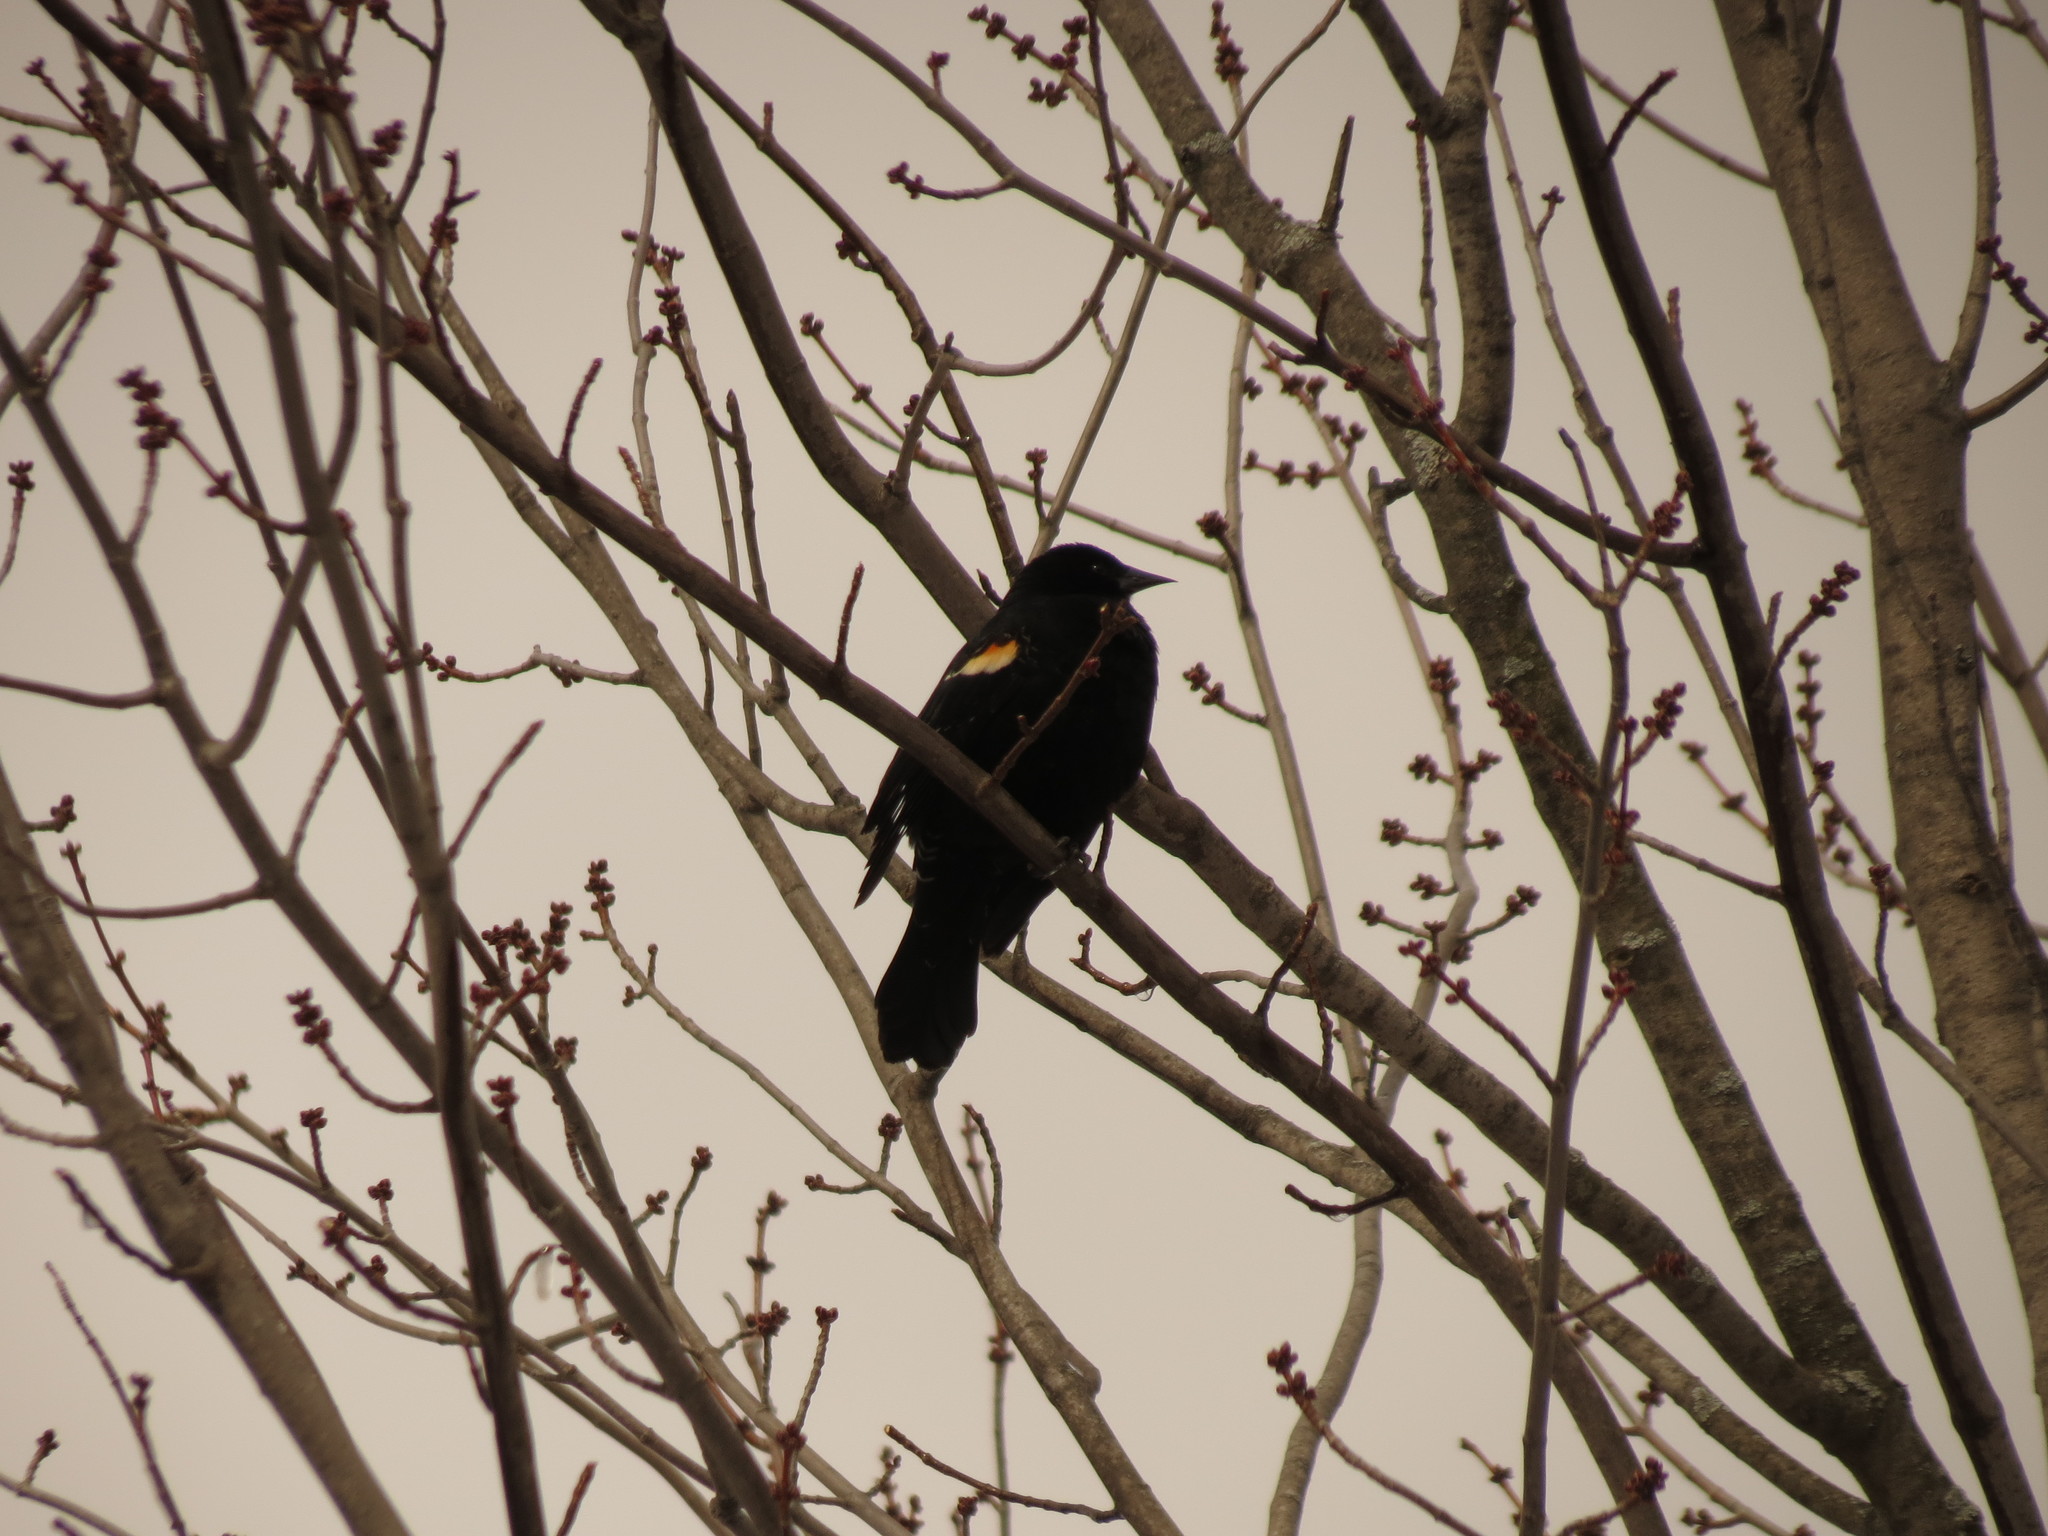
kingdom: Animalia
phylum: Chordata
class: Aves
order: Passeriformes
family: Icteridae
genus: Agelaius
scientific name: Agelaius phoeniceus
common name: Red-winged blackbird
